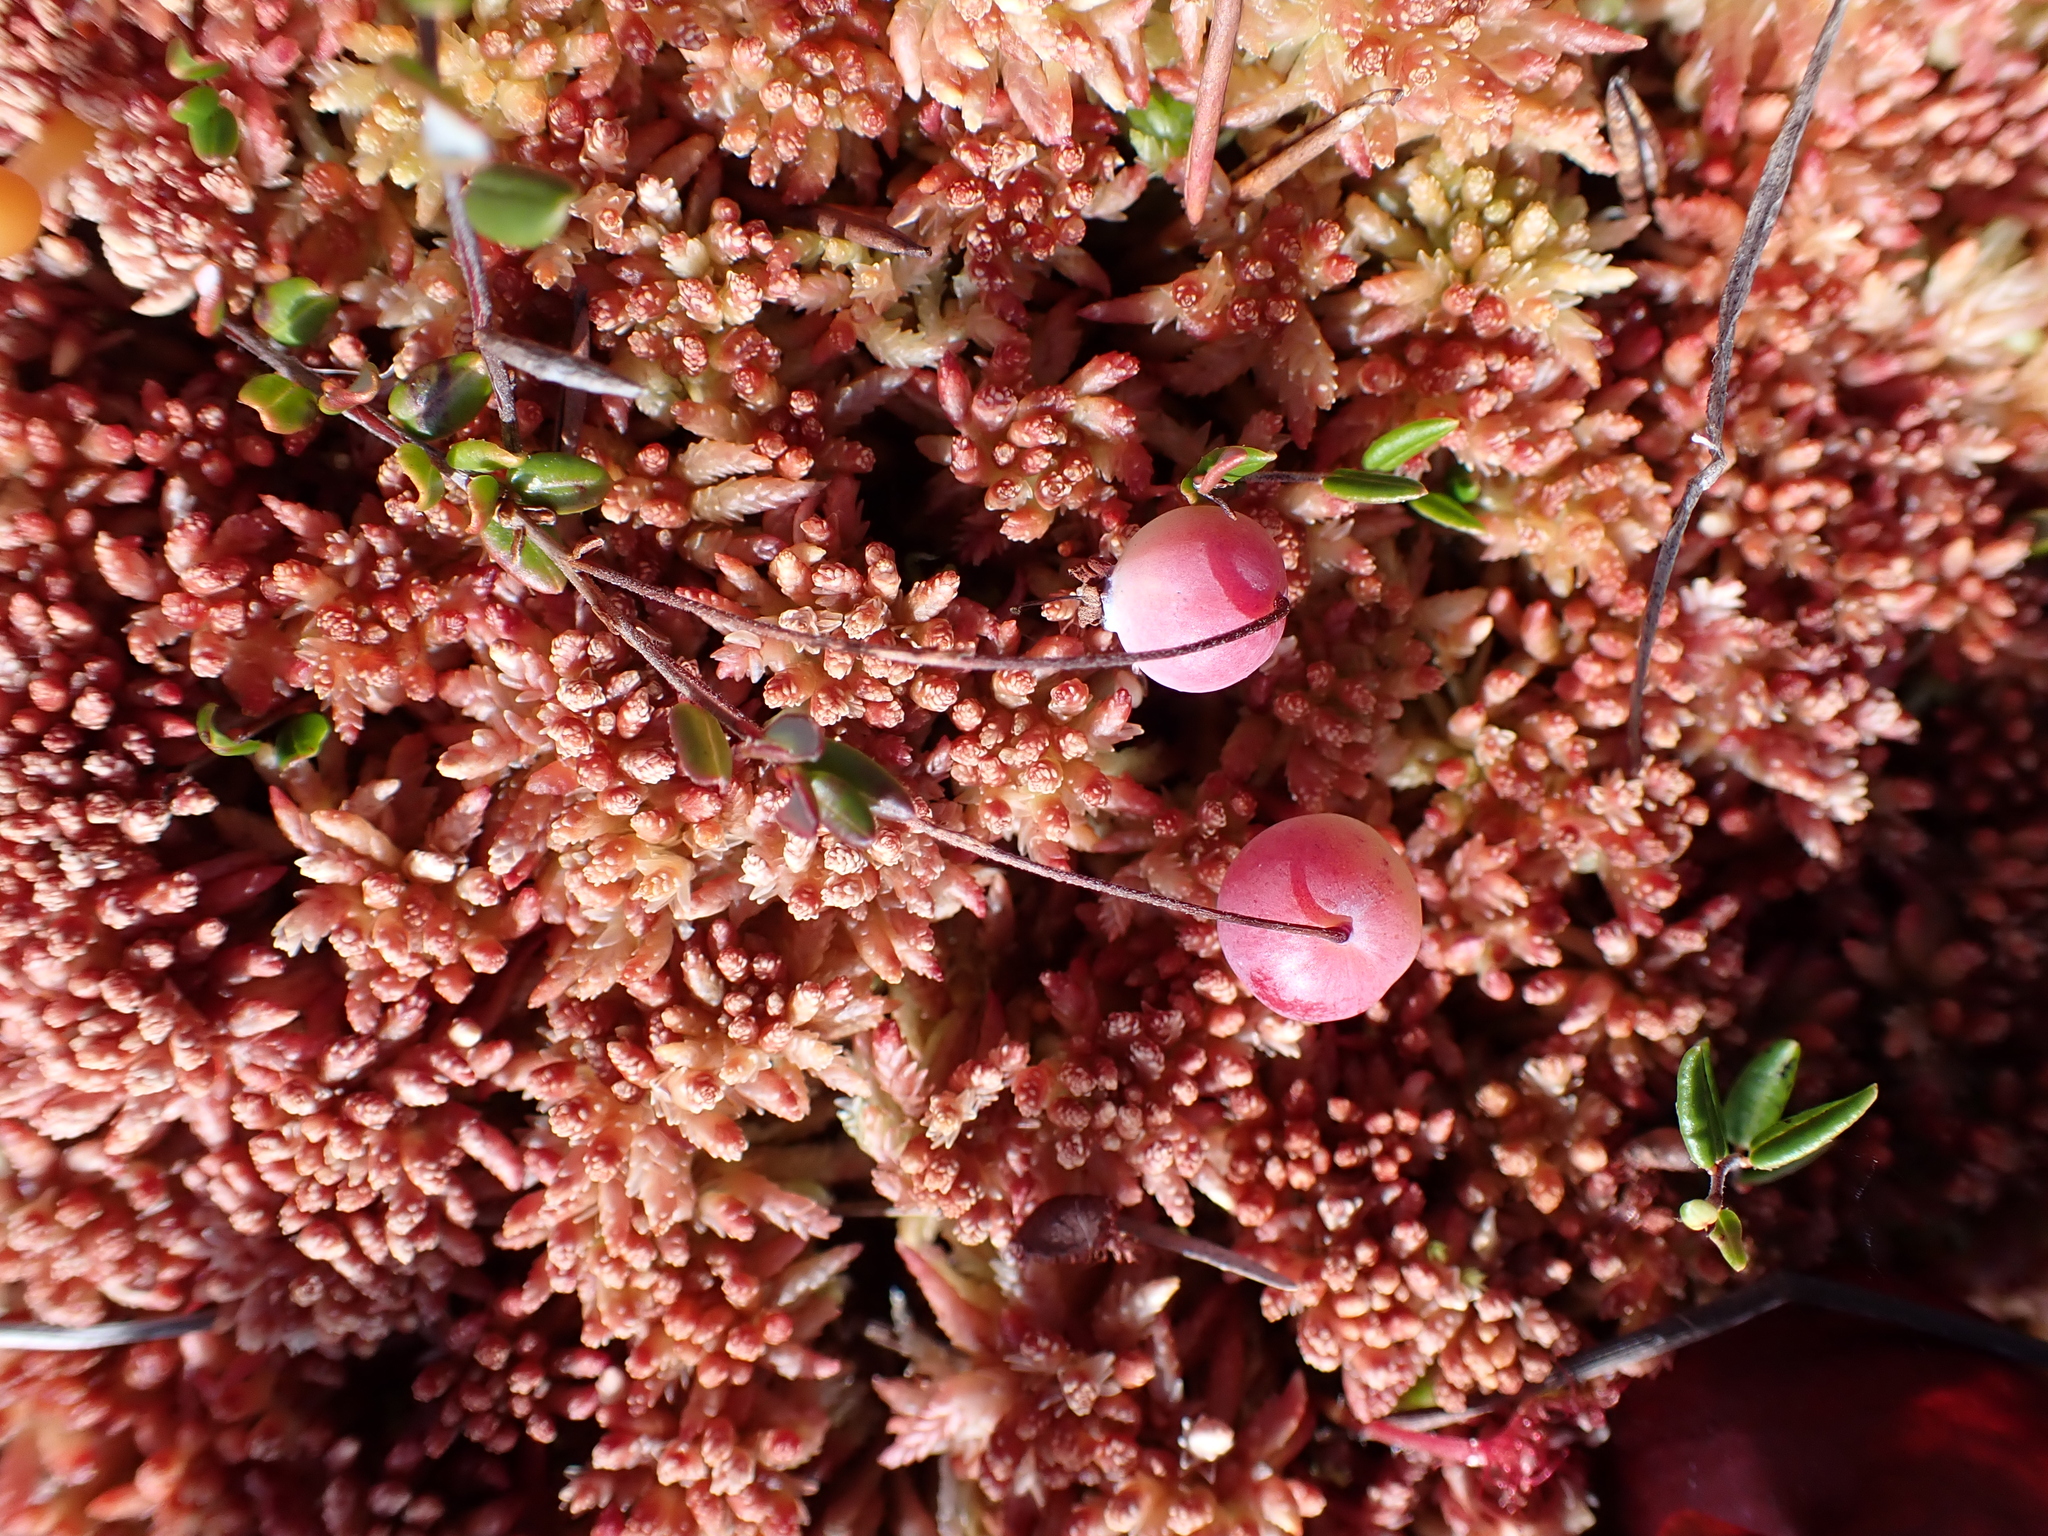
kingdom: Plantae
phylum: Tracheophyta
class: Magnoliopsida
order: Ericales
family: Ericaceae
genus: Vaccinium
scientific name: Vaccinium oxycoccos
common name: Cranberry
